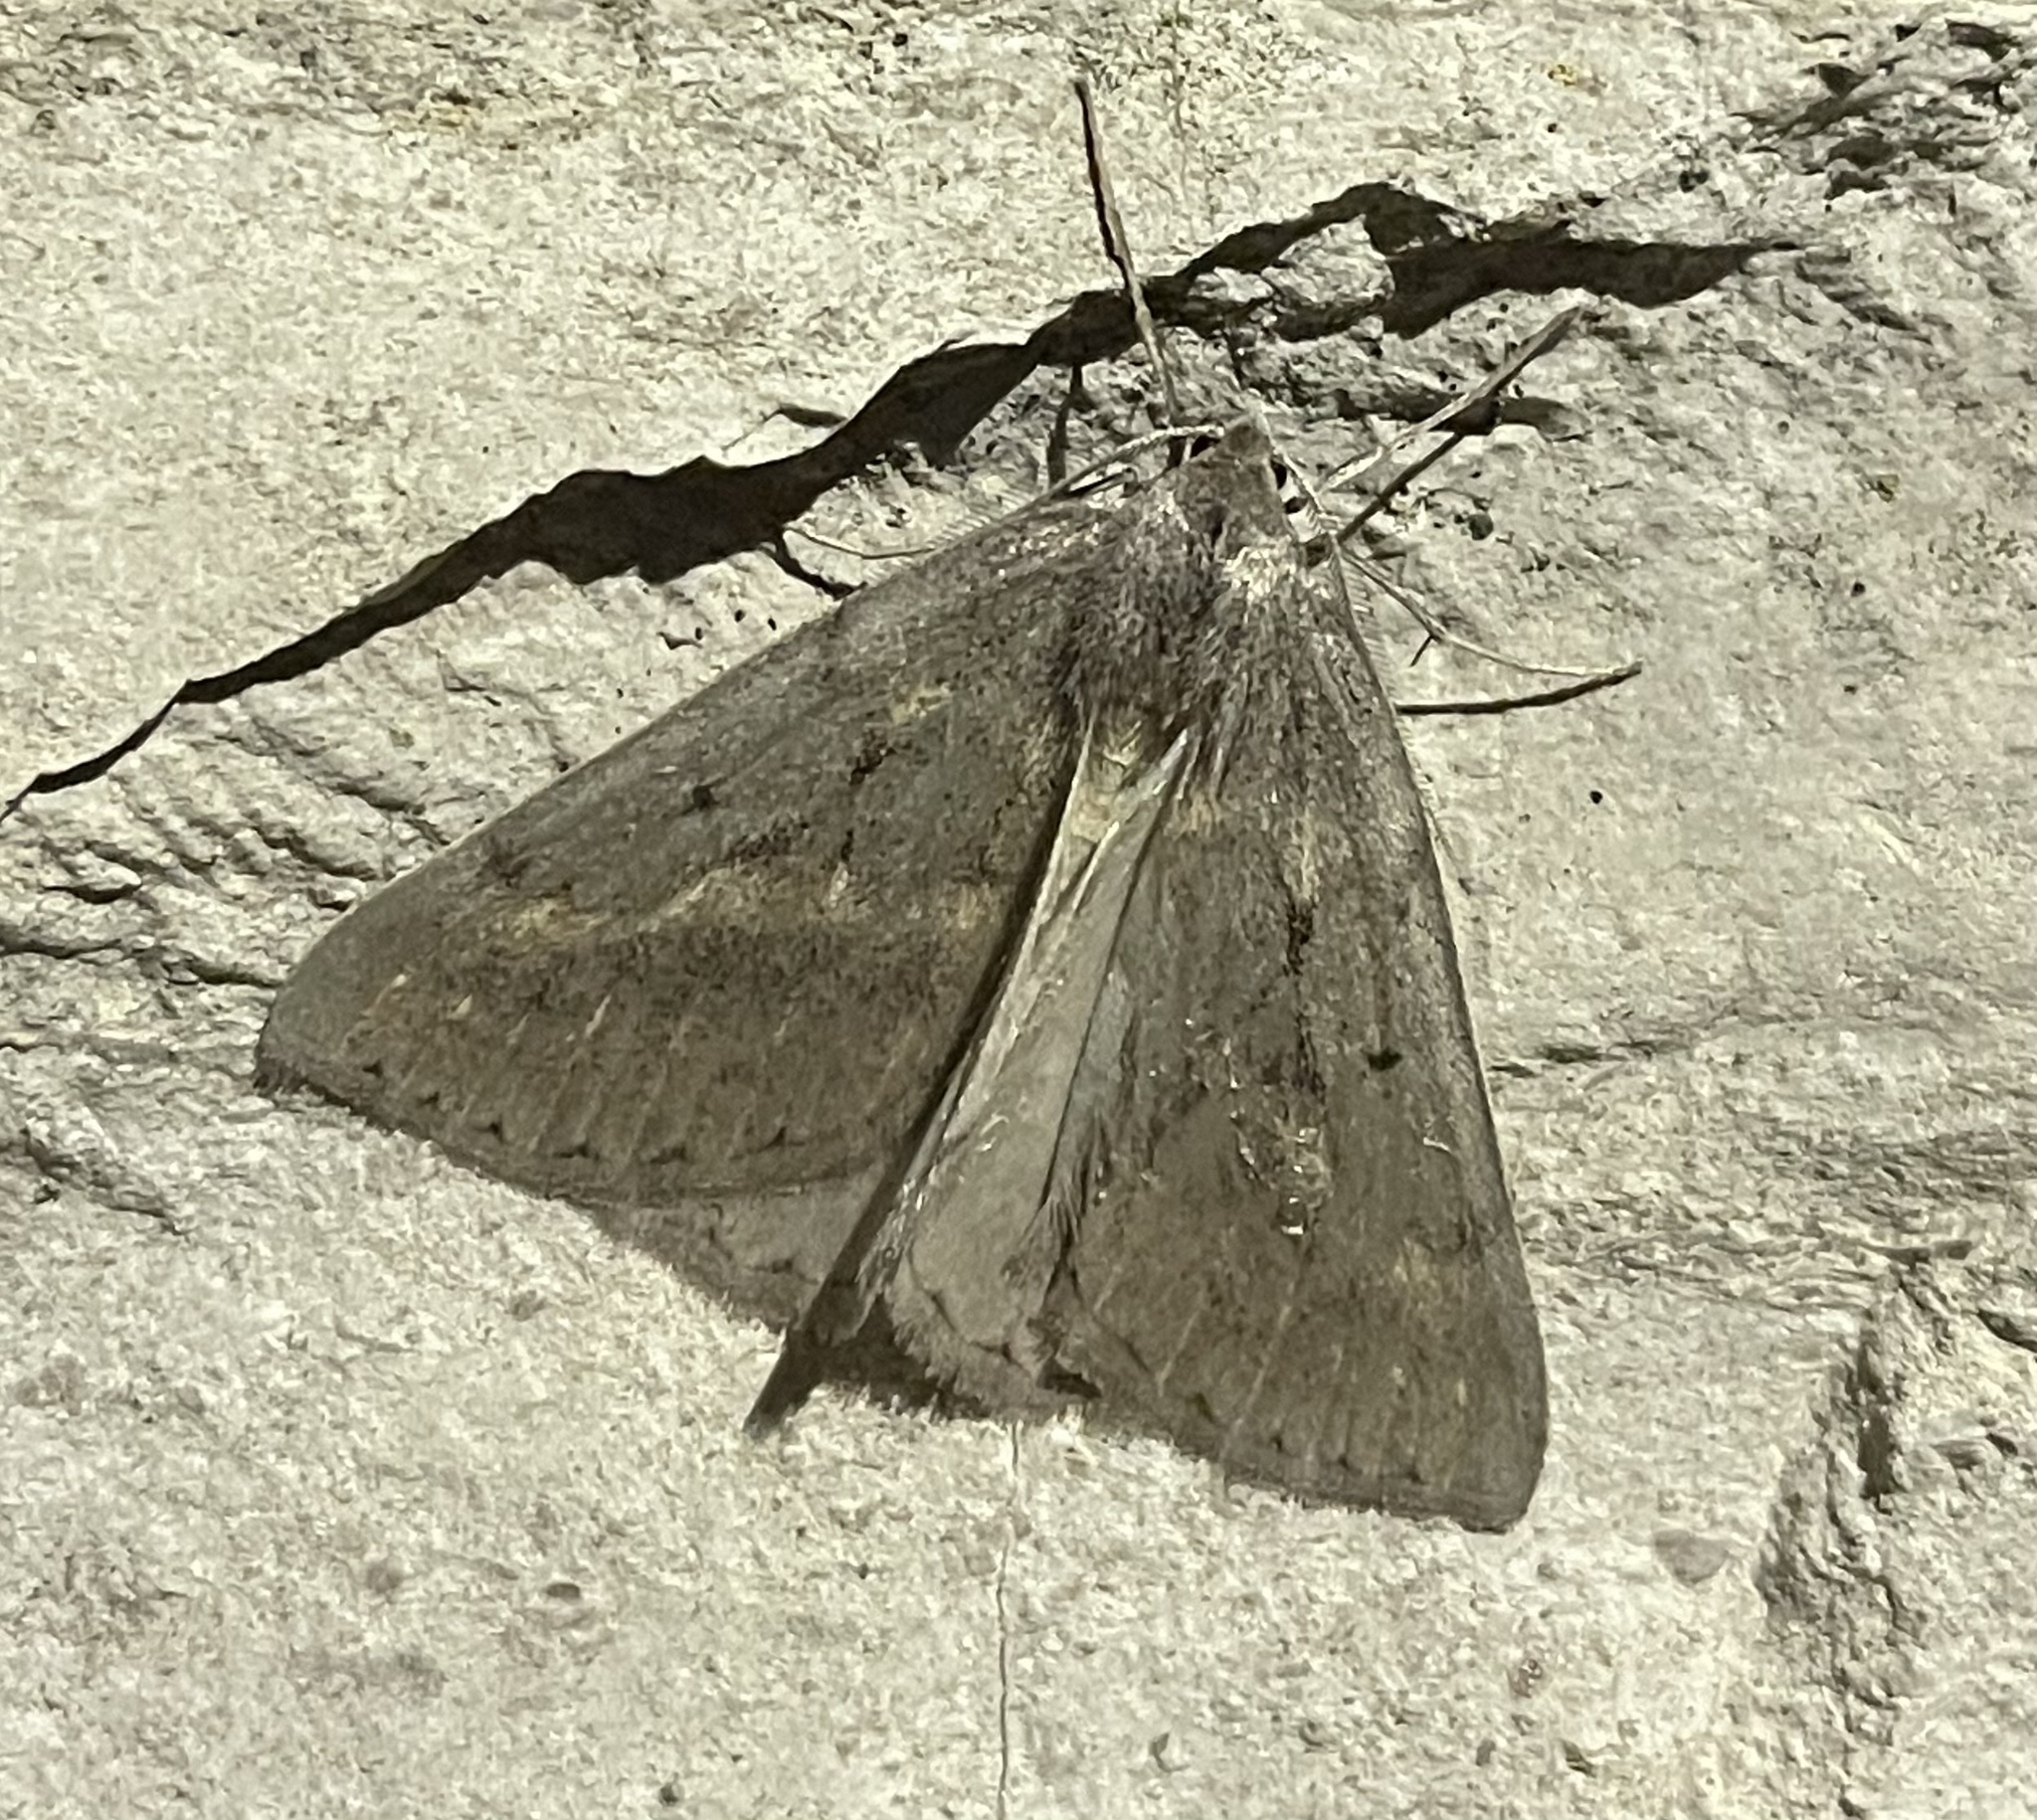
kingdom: Animalia
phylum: Arthropoda
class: Insecta
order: Lepidoptera
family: Geometridae
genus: Chemerina
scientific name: Chemerina caliginearia
